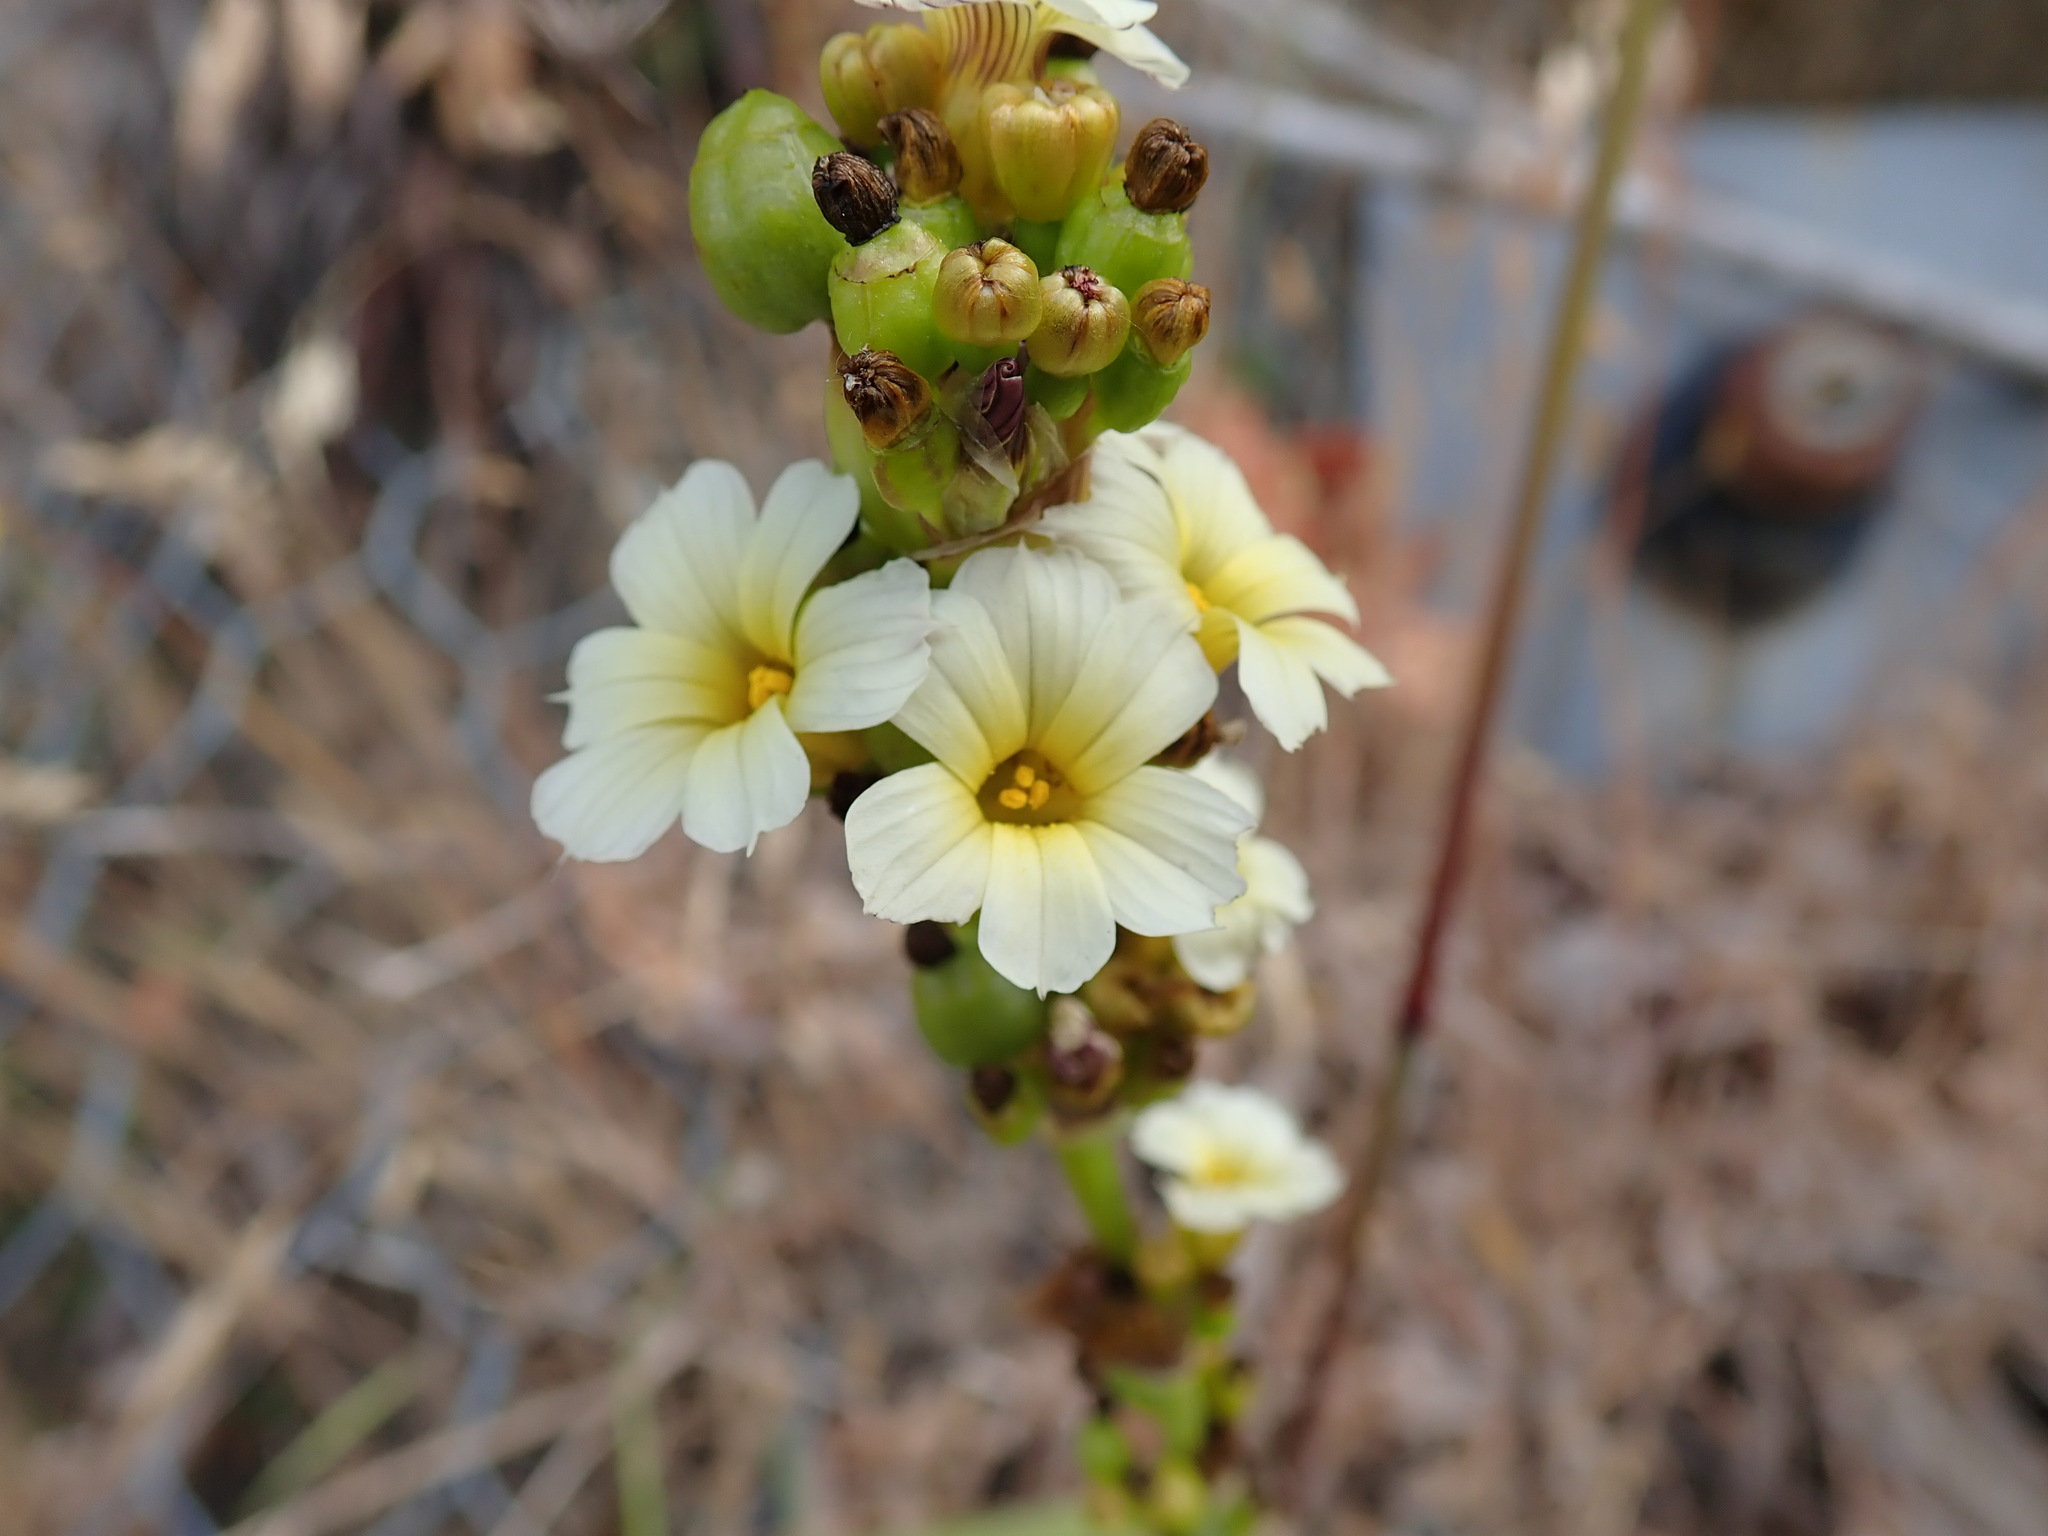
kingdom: Plantae
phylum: Tracheophyta
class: Liliopsida
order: Asparagales
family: Iridaceae
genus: Sisyrinchium
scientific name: Sisyrinchium striatum
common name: Pale yellow-eyed-grass
